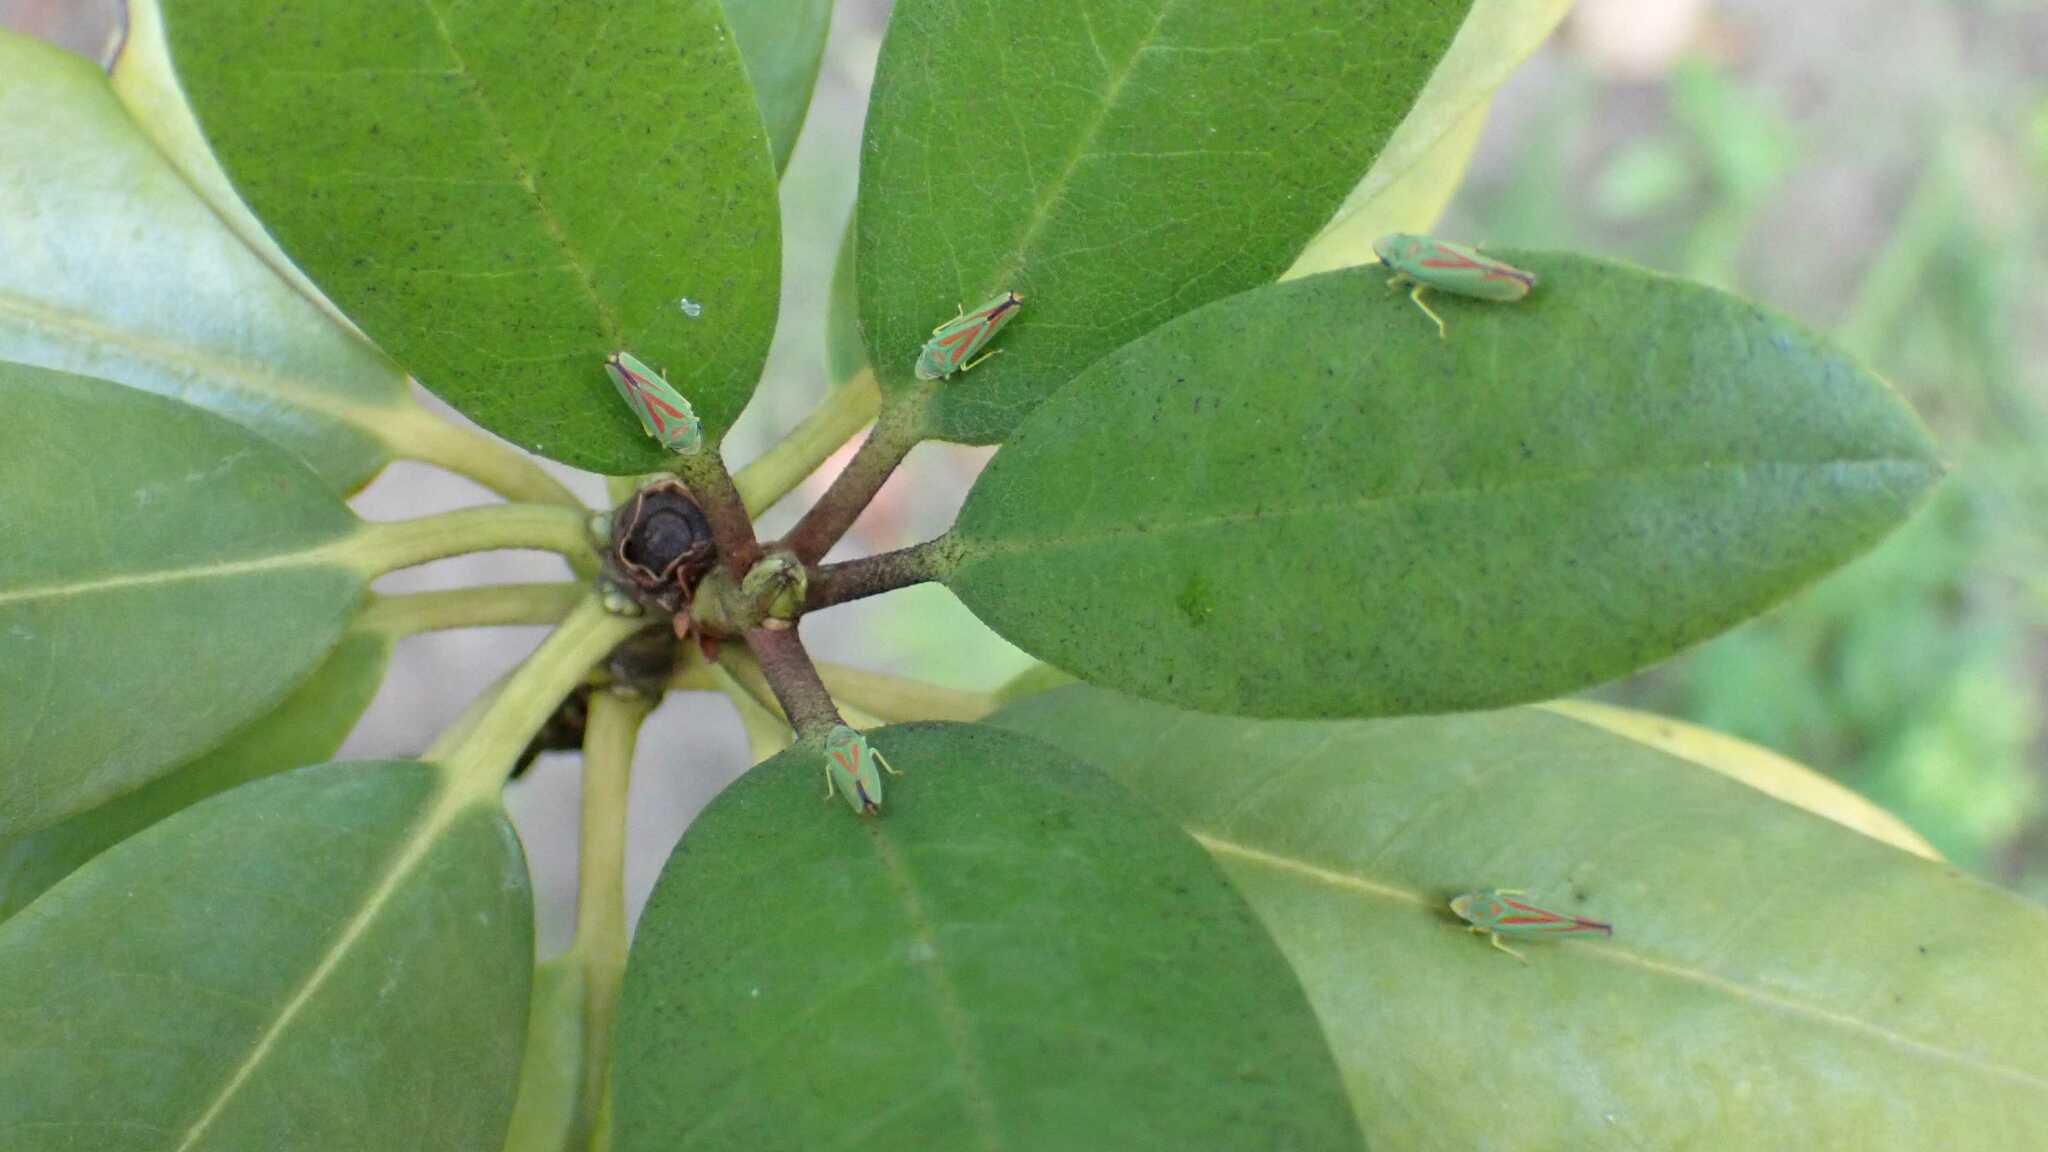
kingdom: Animalia
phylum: Arthropoda
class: Insecta
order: Hemiptera
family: Cicadellidae
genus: Graphocephala
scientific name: Graphocephala fennahi
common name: Rhododendron leafhopper
